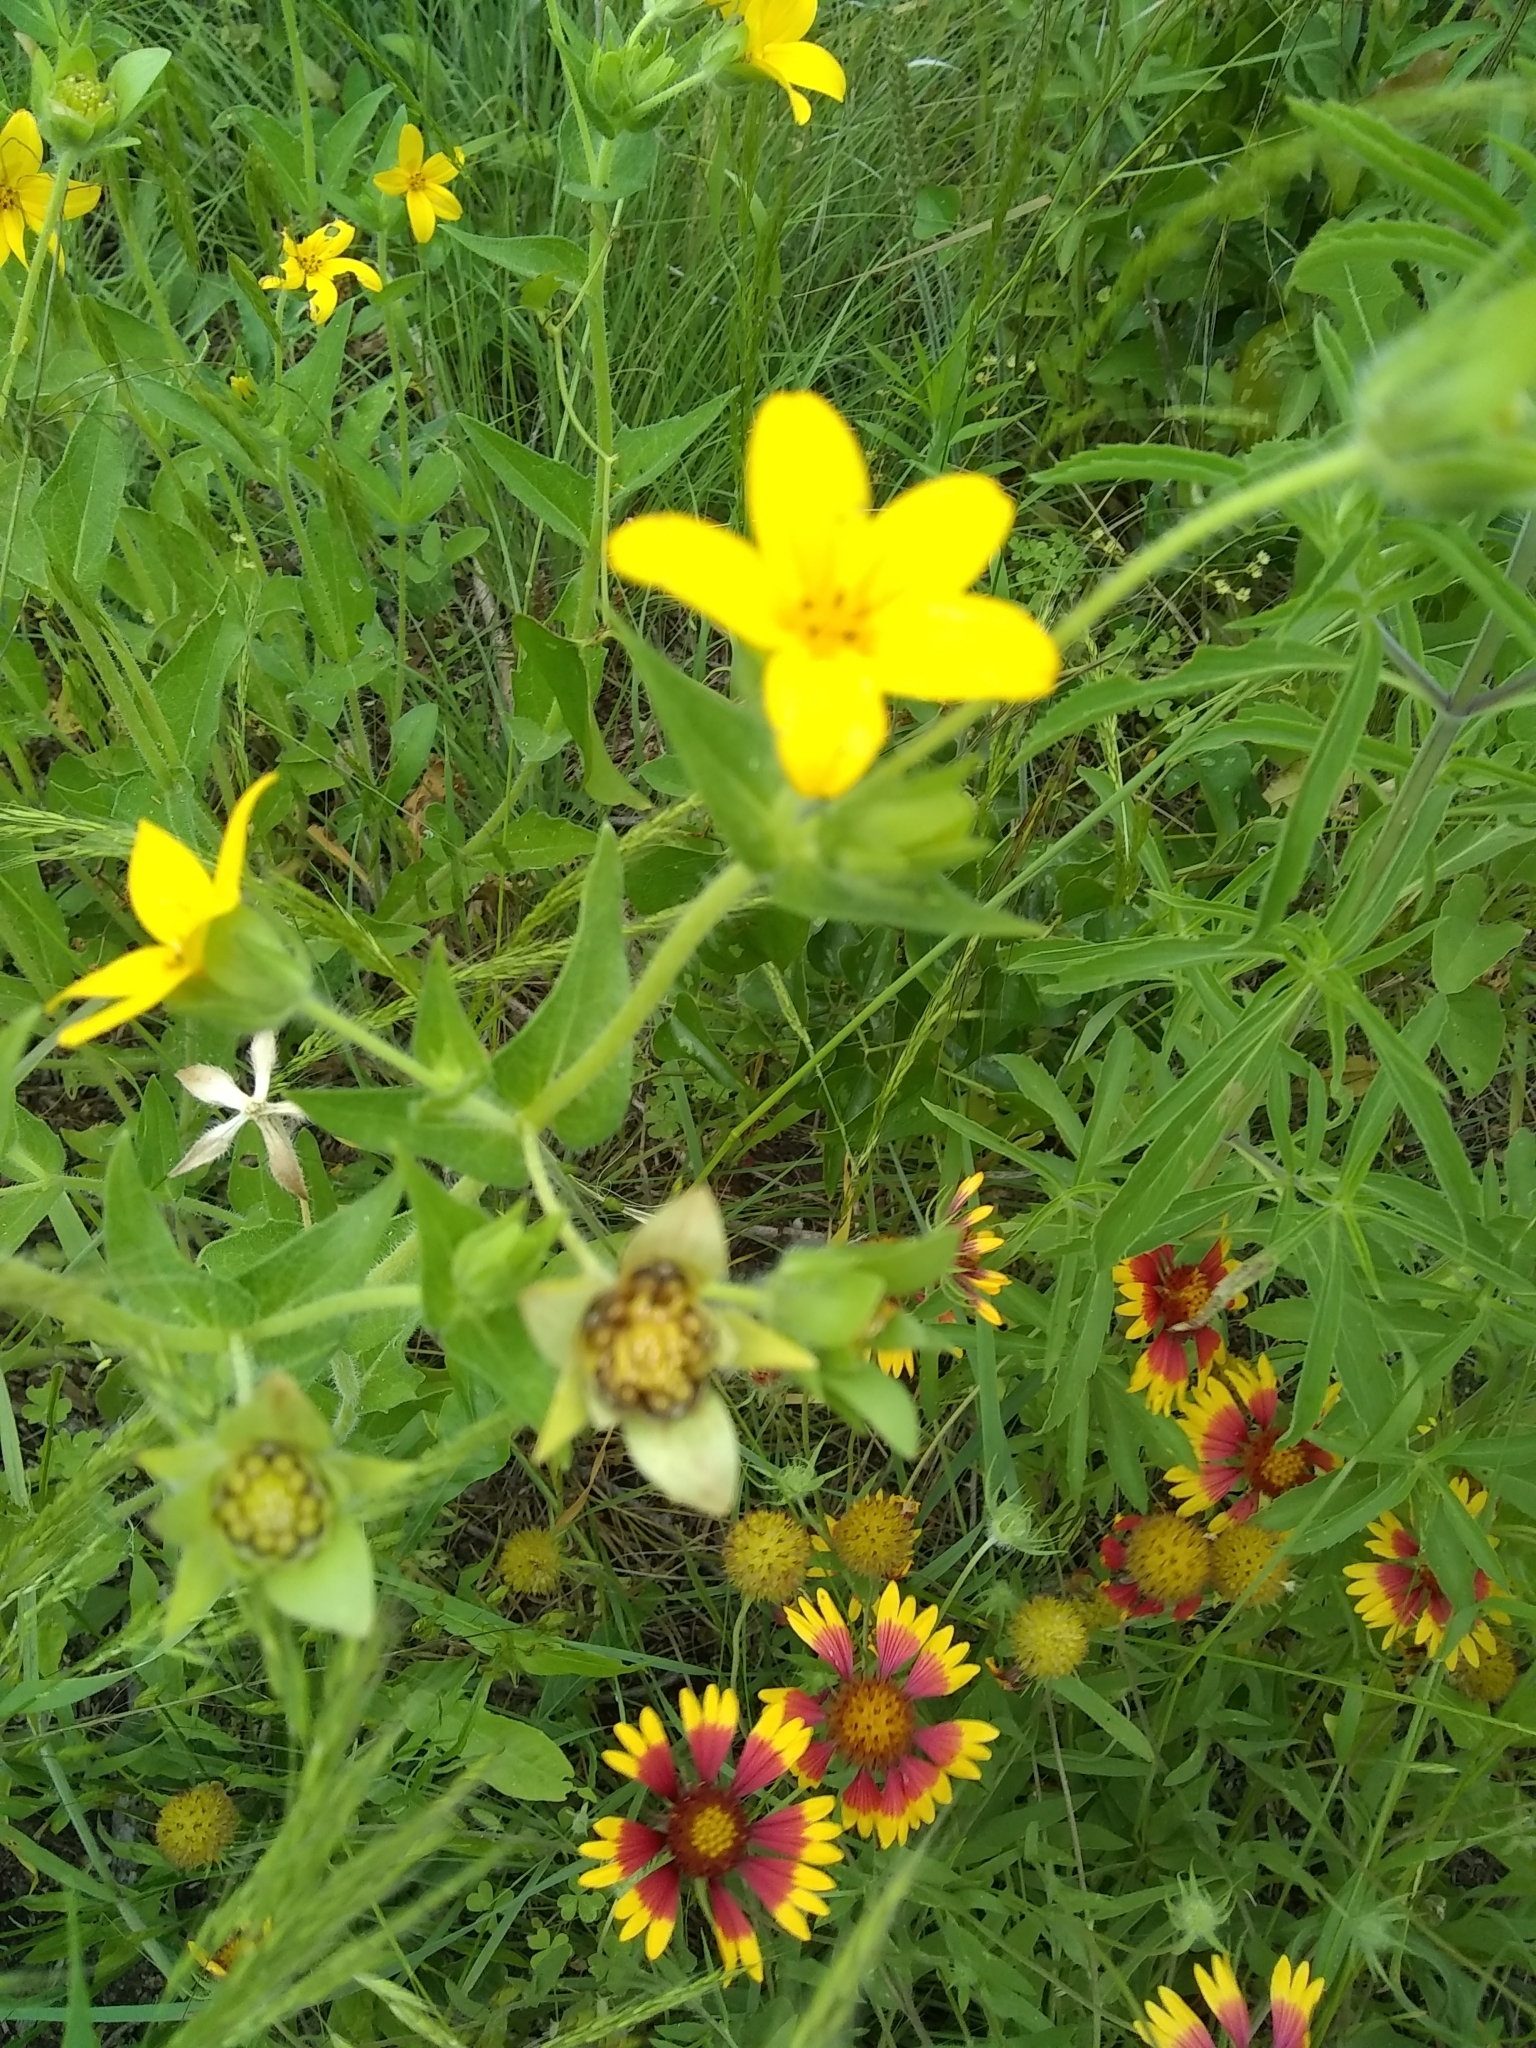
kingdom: Plantae
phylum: Tracheophyta
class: Magnoliopsida
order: Asterales
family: Asteraceae
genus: Lindheimera
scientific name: Lindheimera texana
